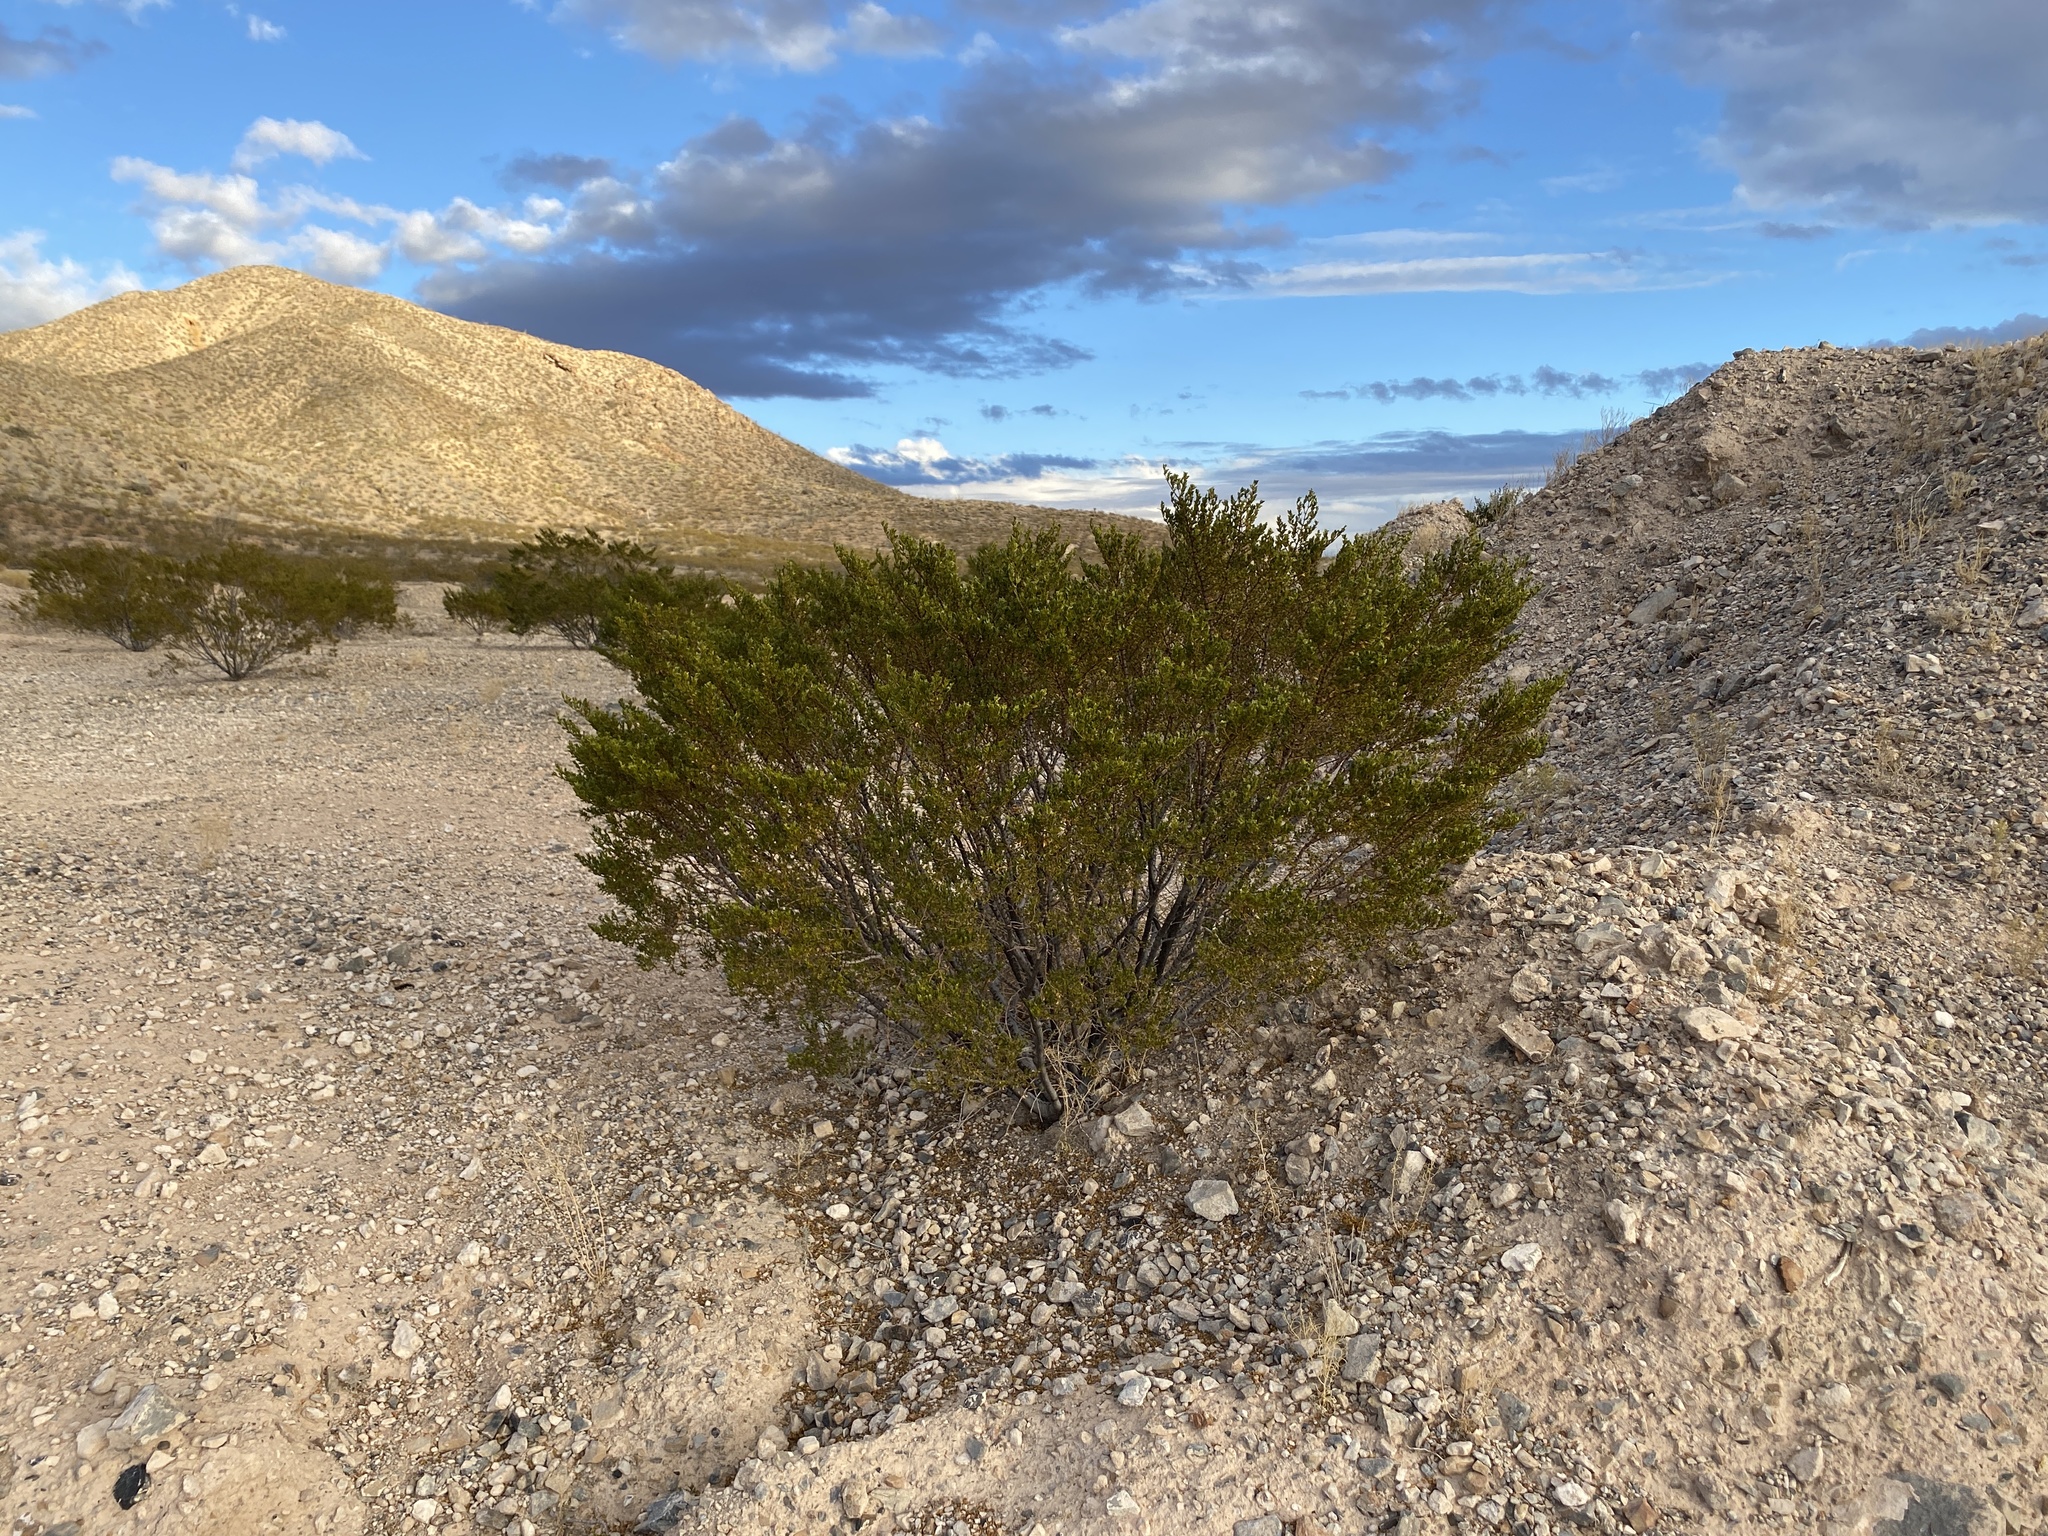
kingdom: Plantae
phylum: Tracheophyta
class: Magnoliopsida
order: Zygophyllales
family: Zygophyllaceae
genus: Larrea
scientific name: Larrea tridentata
